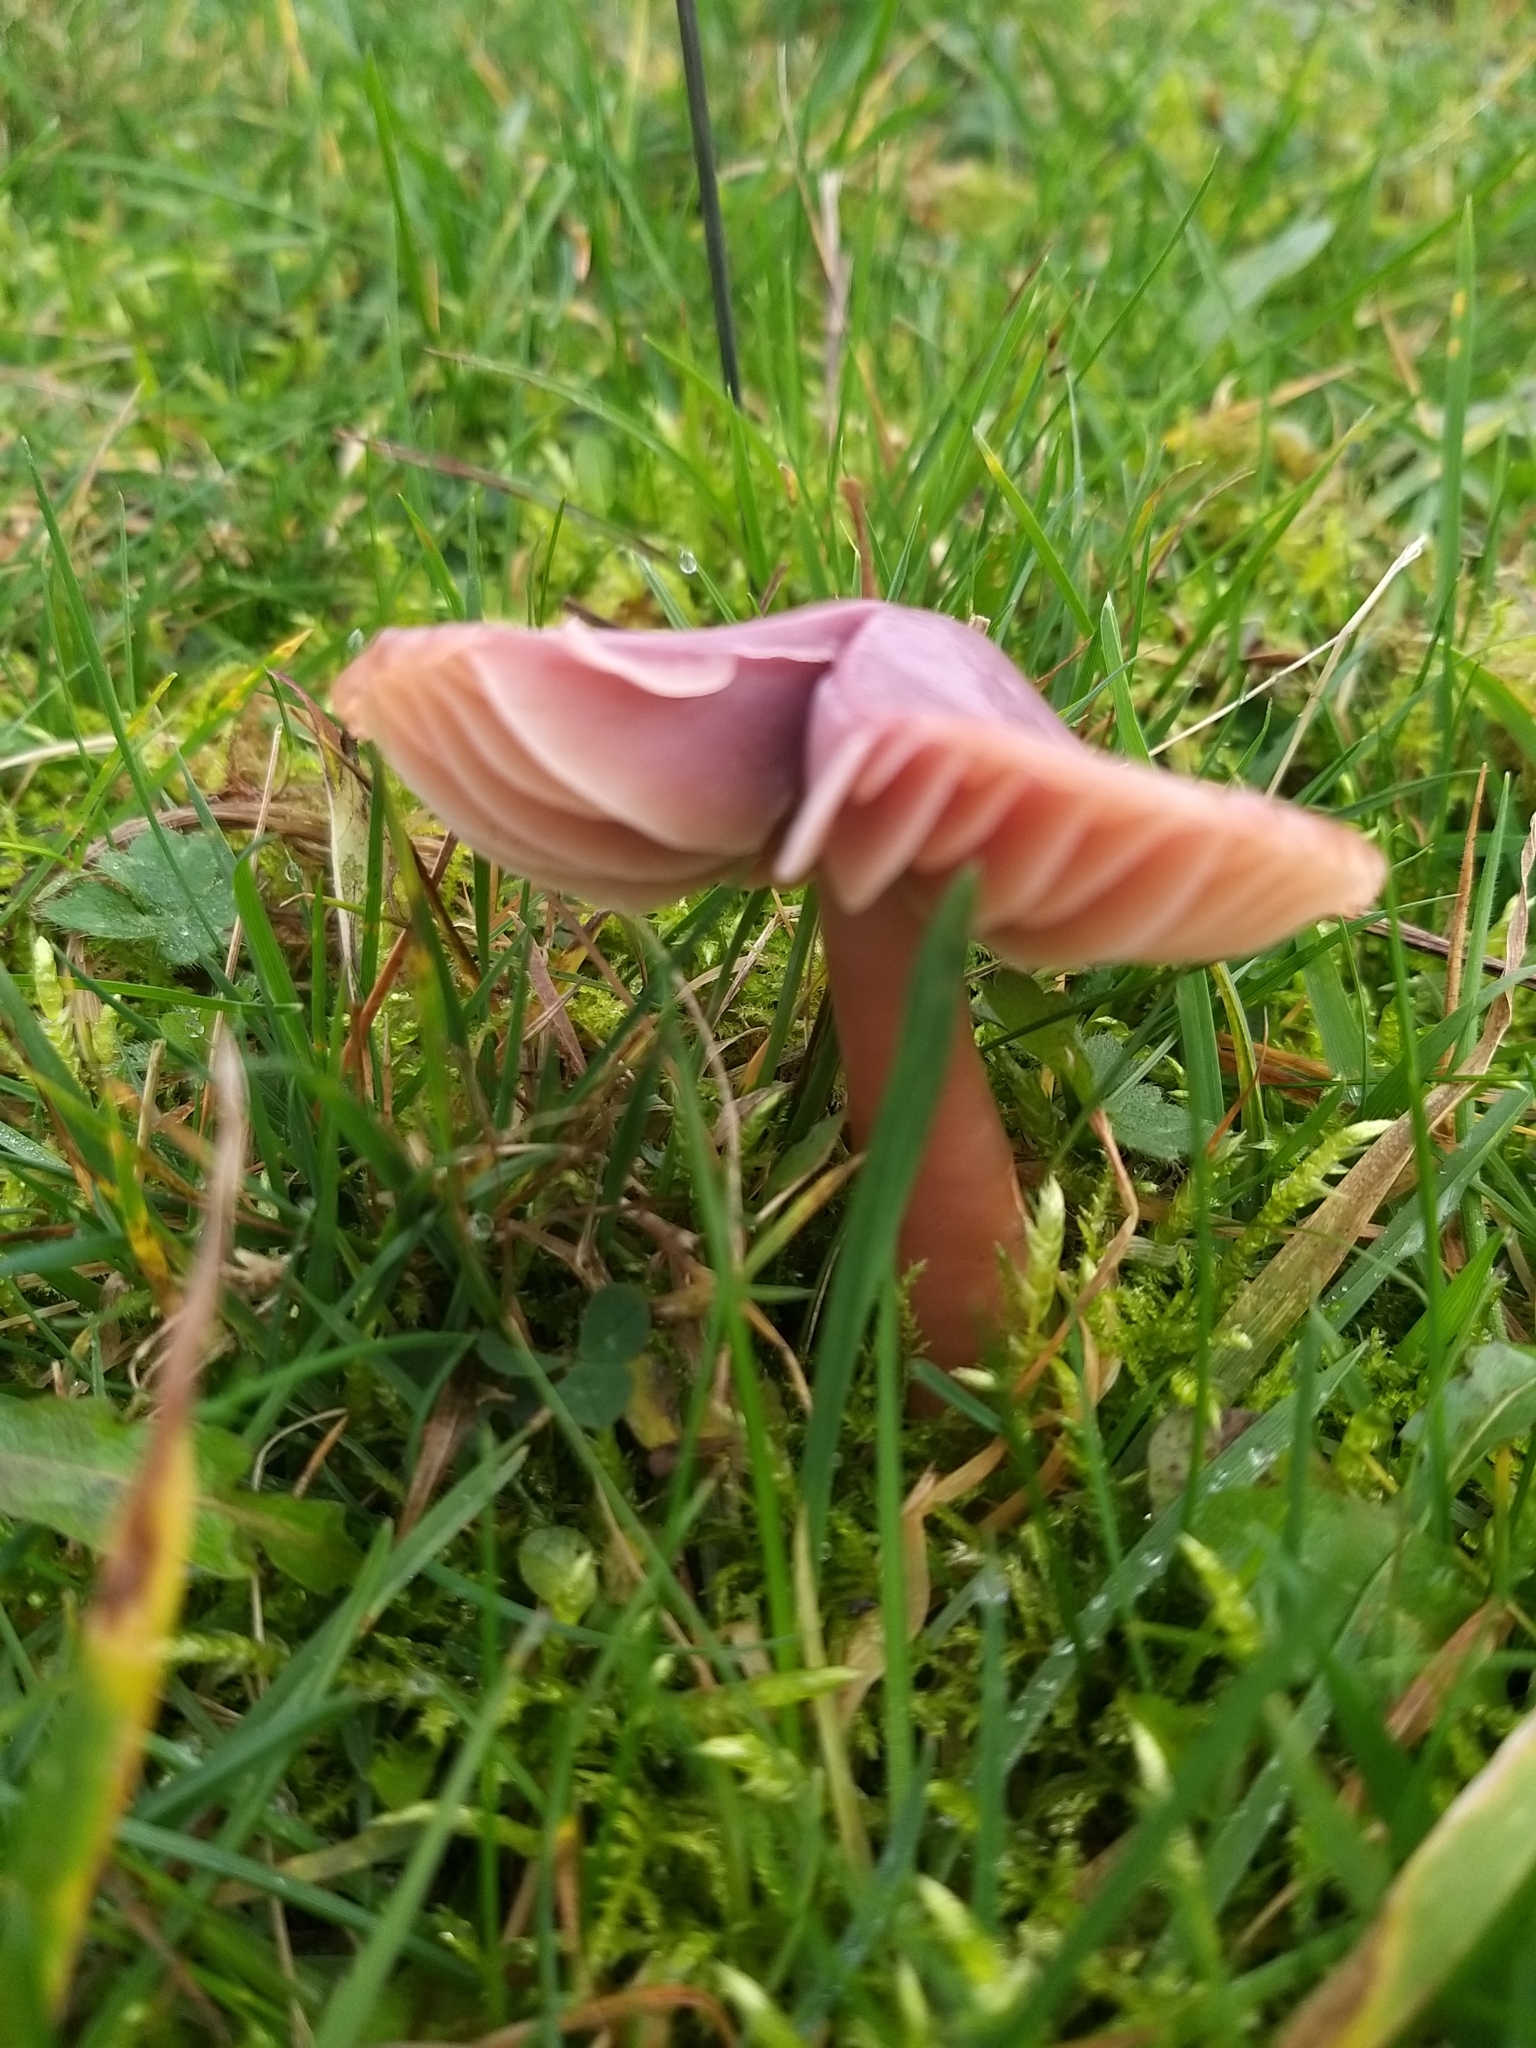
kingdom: Fungi
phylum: Basidiomycota
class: Agaricomycetes
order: Agaricales
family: Hygrophoraceae
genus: Gliophorus
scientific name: Gliophorus reginae
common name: Jubilee waxcap
